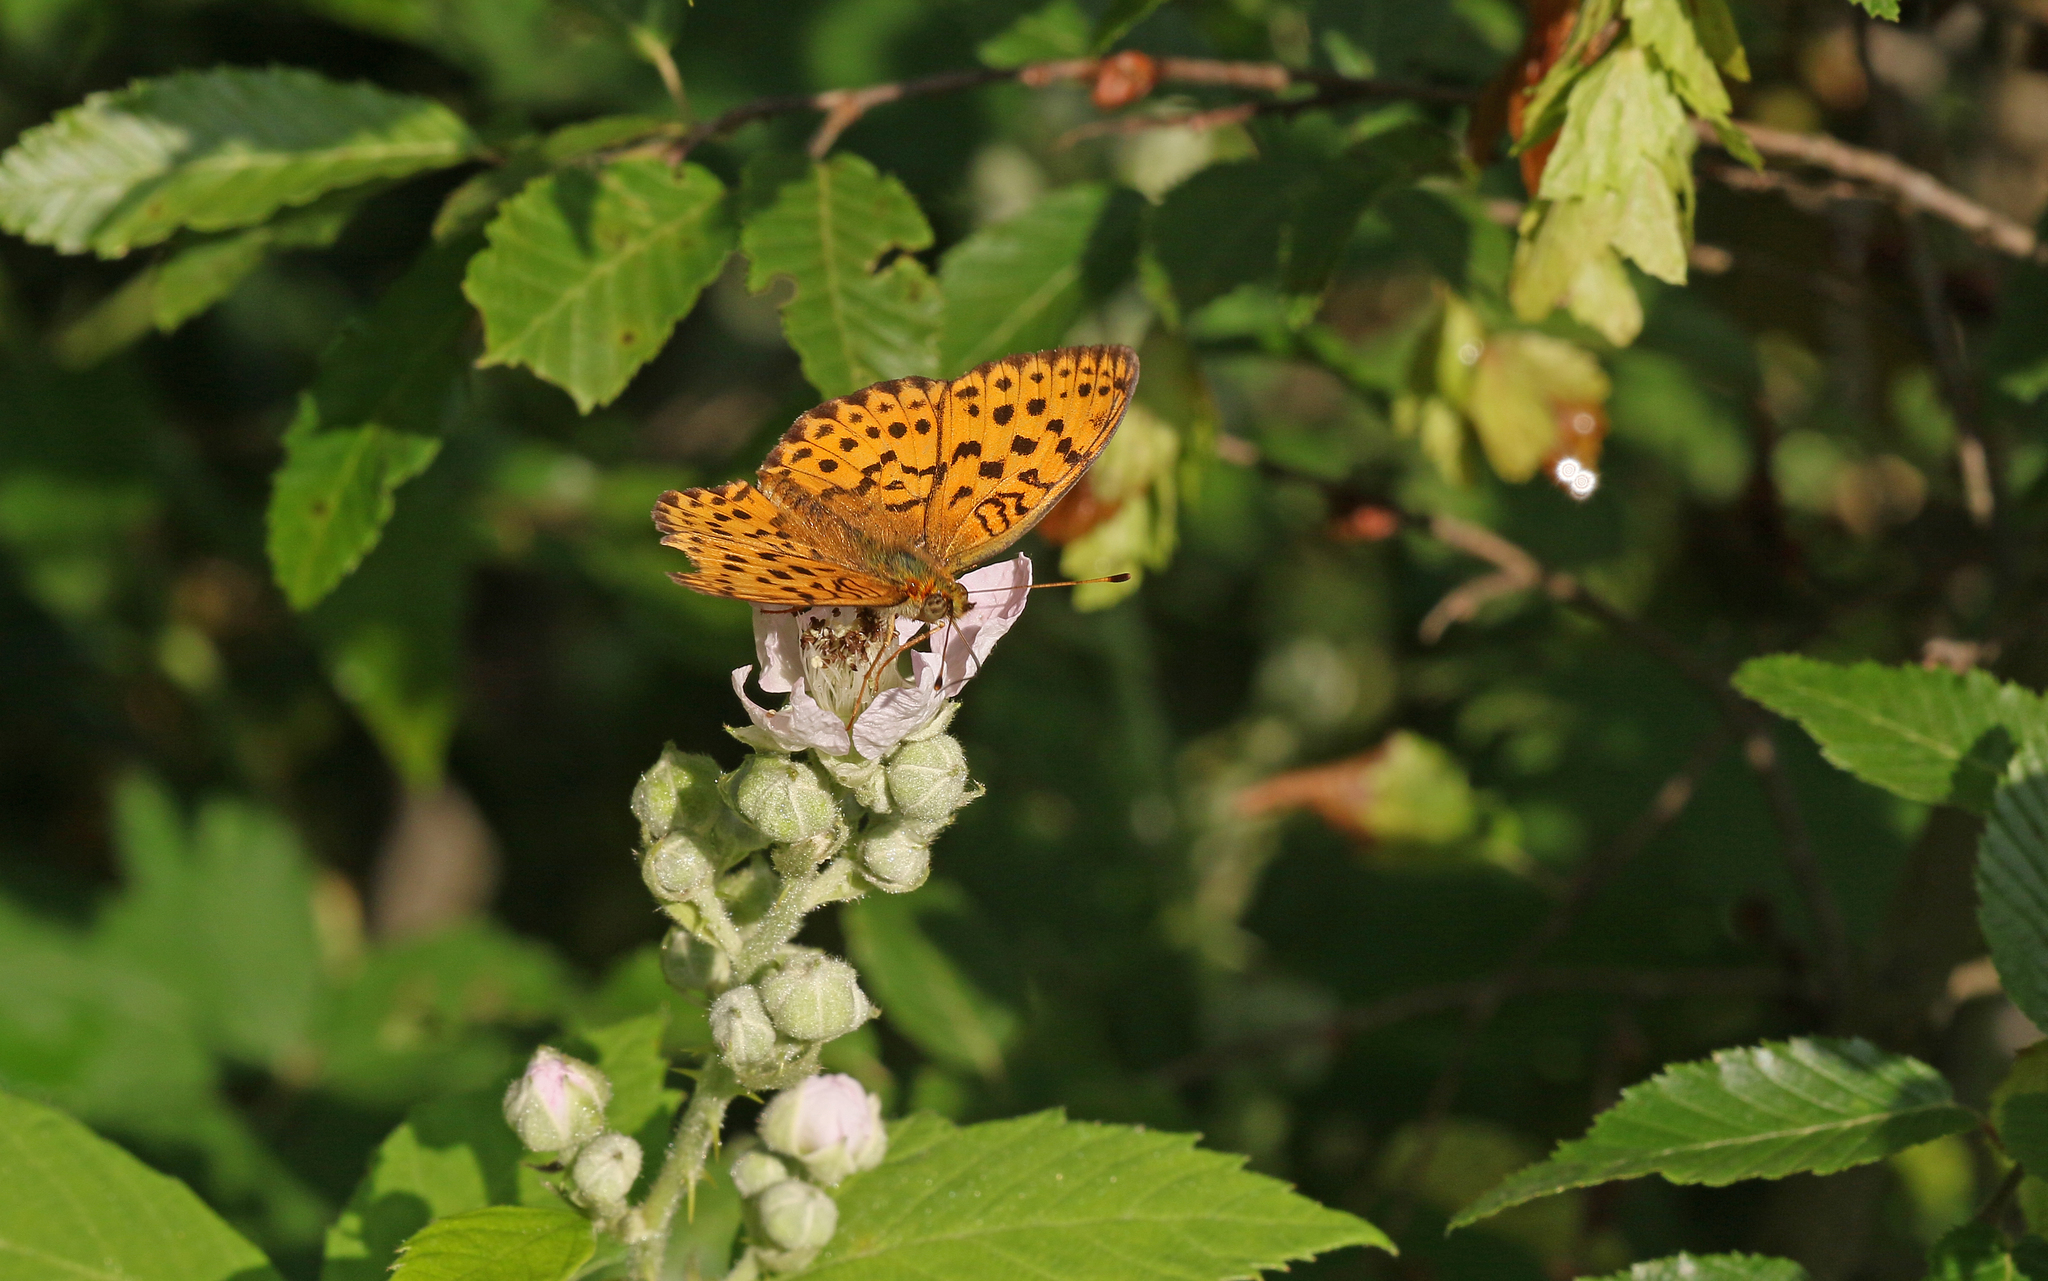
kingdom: Animalia
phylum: Arthropoda
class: Insecta
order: Lepidoptera
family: Nymphalidae
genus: Brenthis
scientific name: Brenthis daphne
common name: Marbled fritillary
